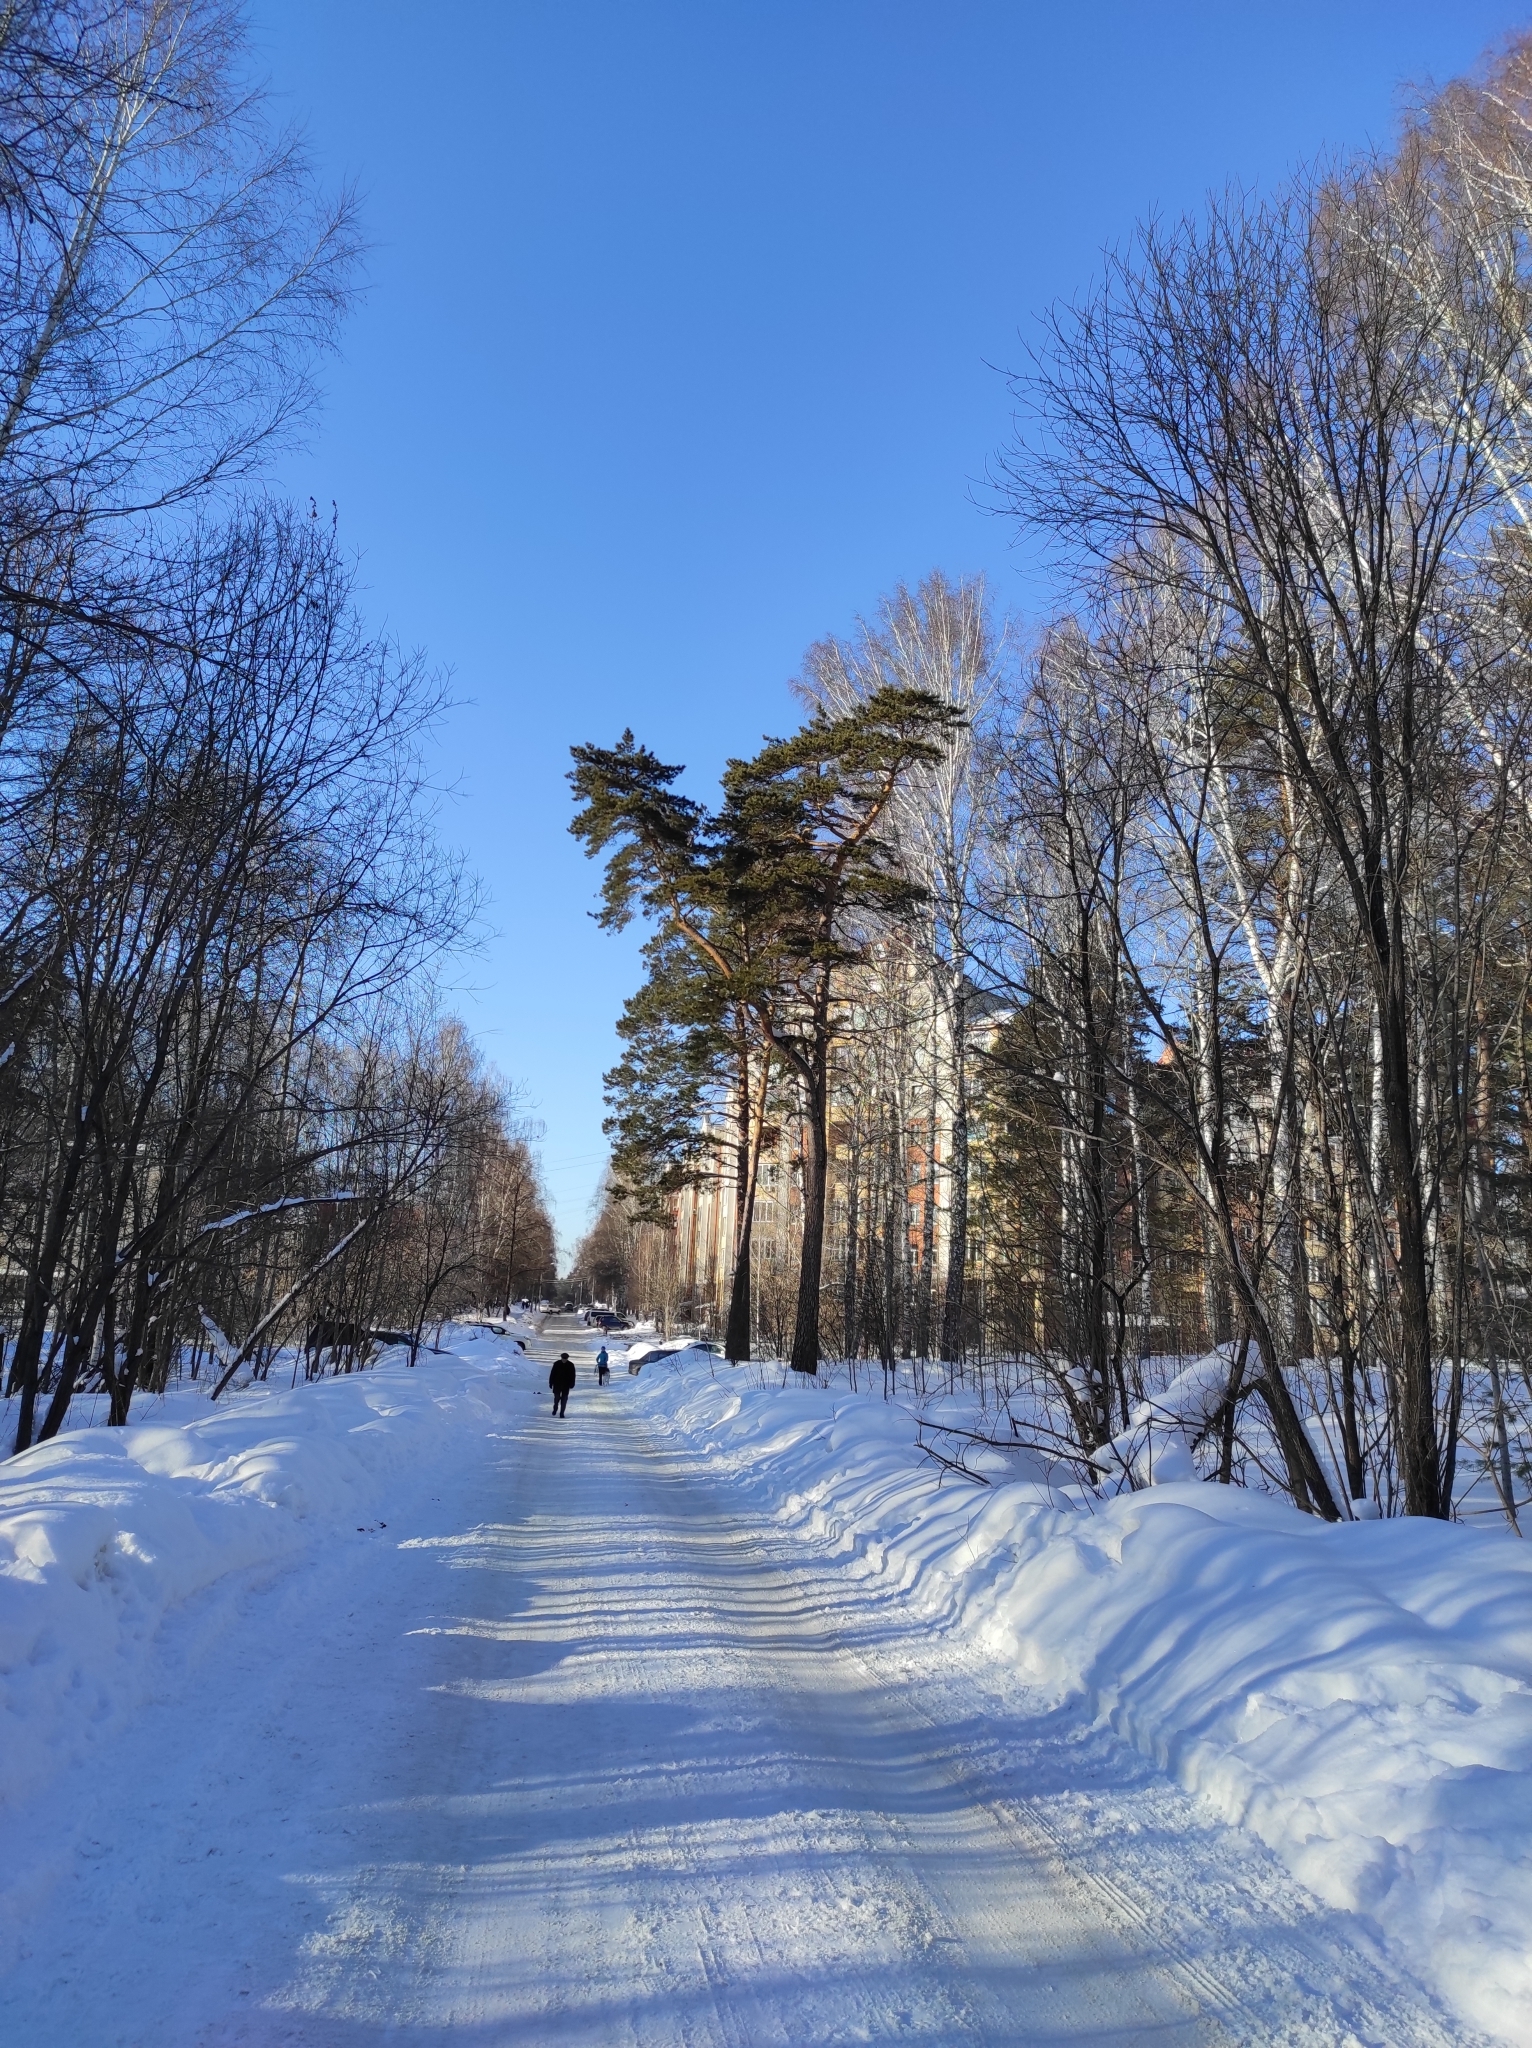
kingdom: Plantae
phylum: Tracheophyta
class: Pinopsida
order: Pinales
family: Pinaceae
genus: Pinus
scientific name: Pinus sylvestris
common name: Scots pine
